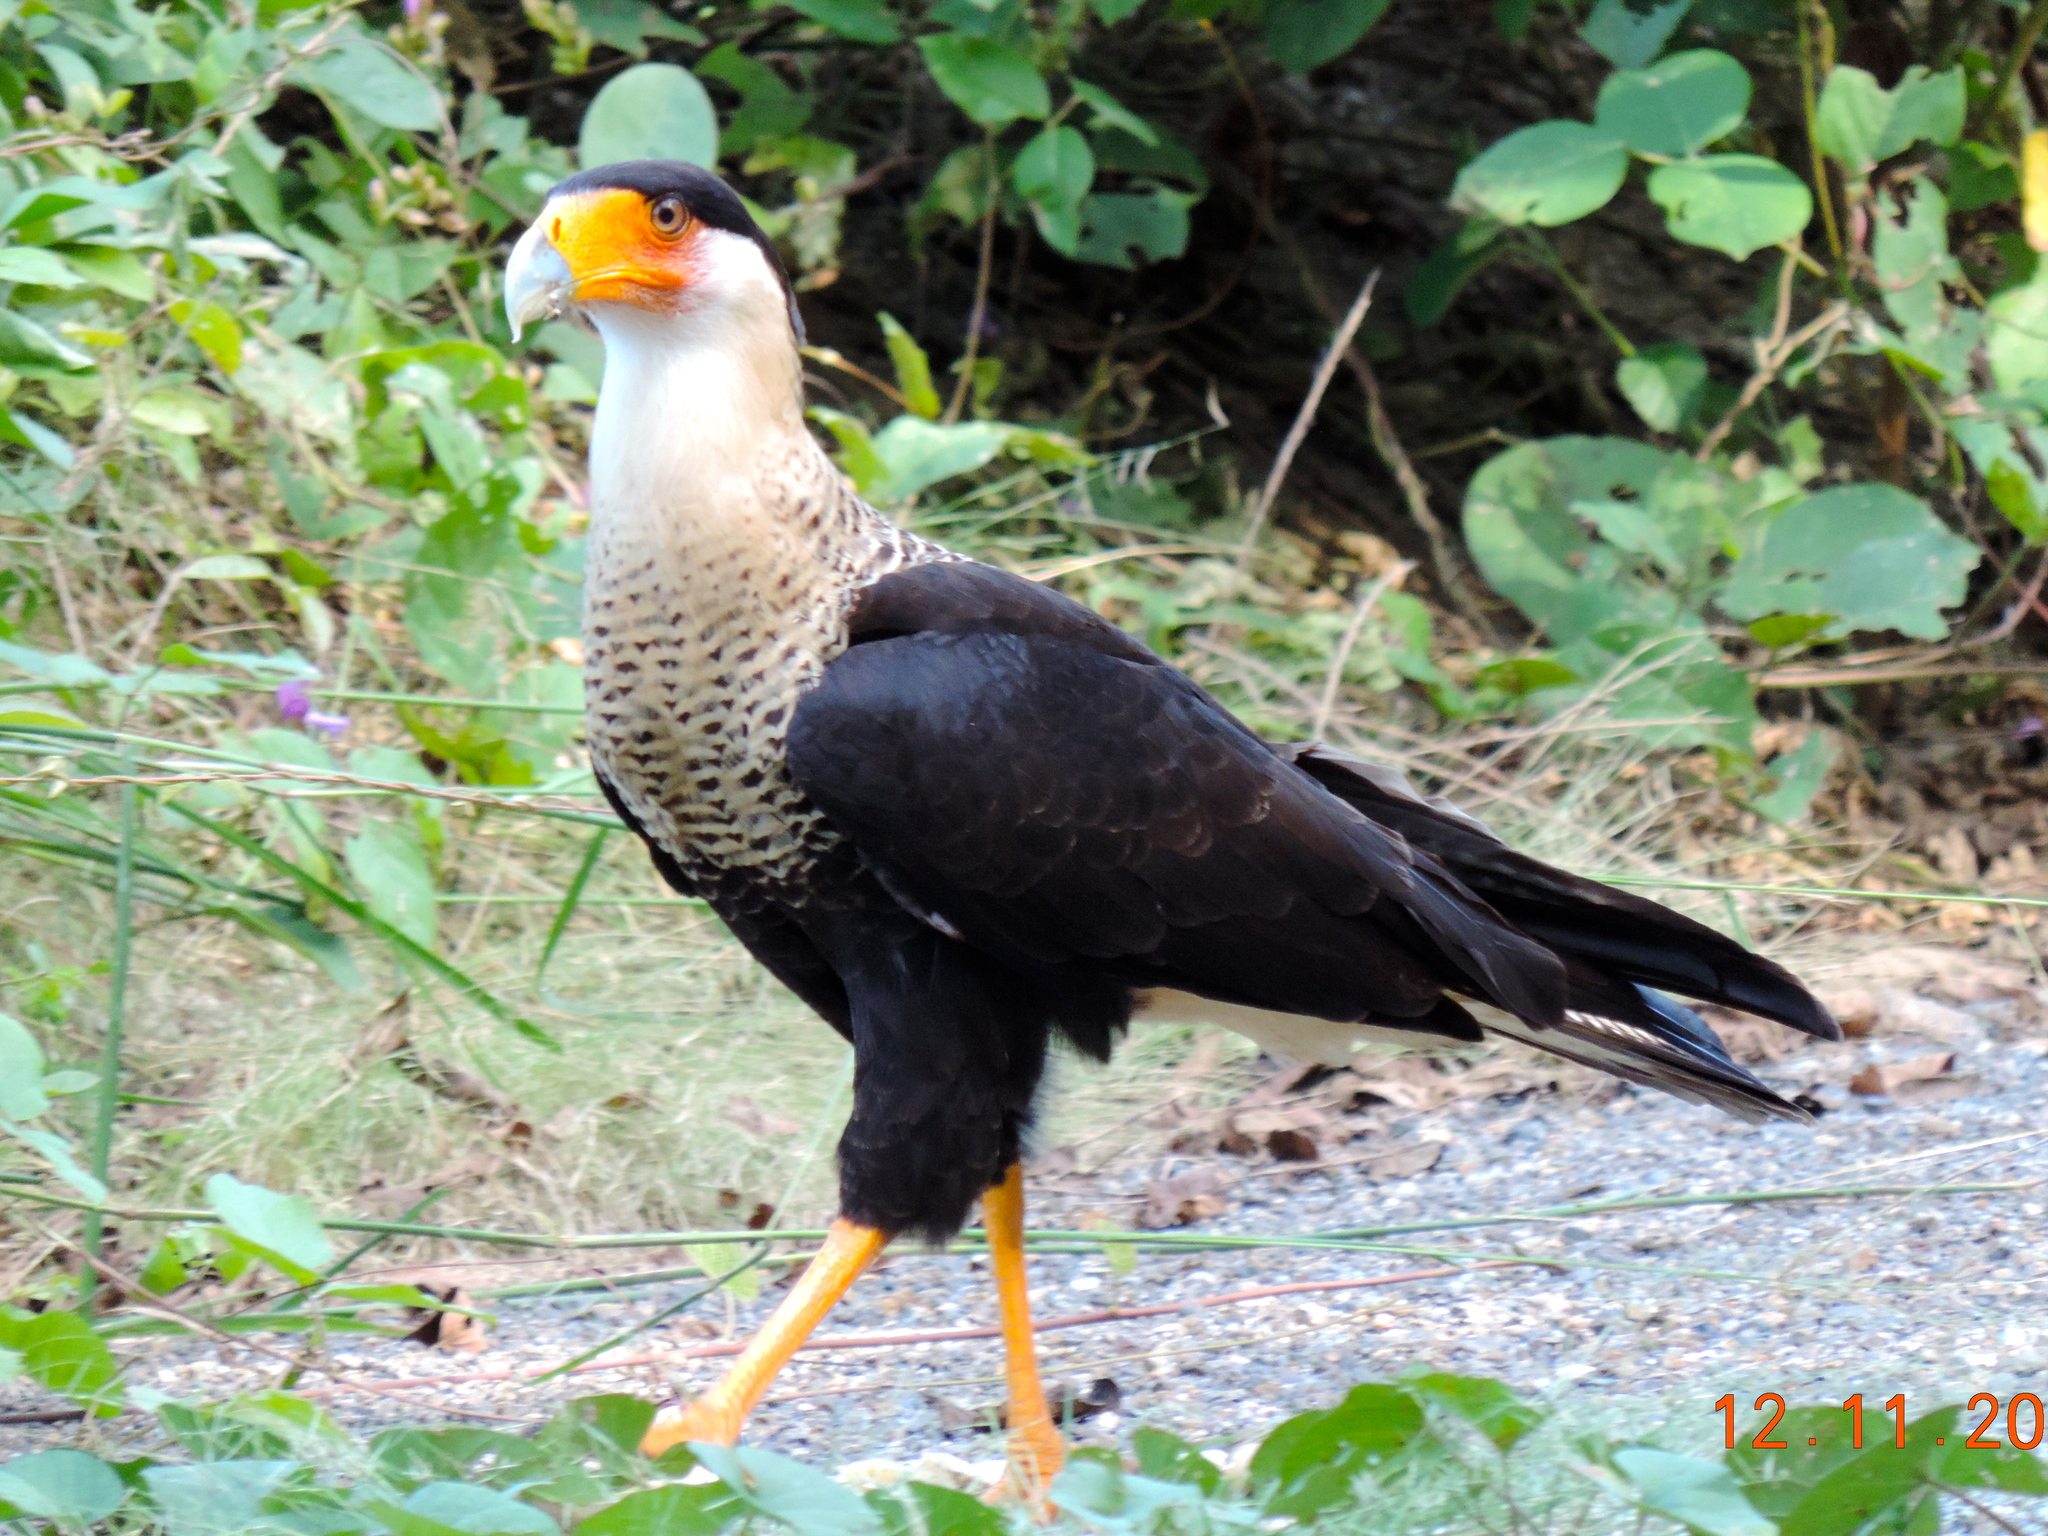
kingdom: Animalia
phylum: Chordata
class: Aves
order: Falconiformes
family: Falconidae
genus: Caracara
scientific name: Caracara plancus
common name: Southern caracara
